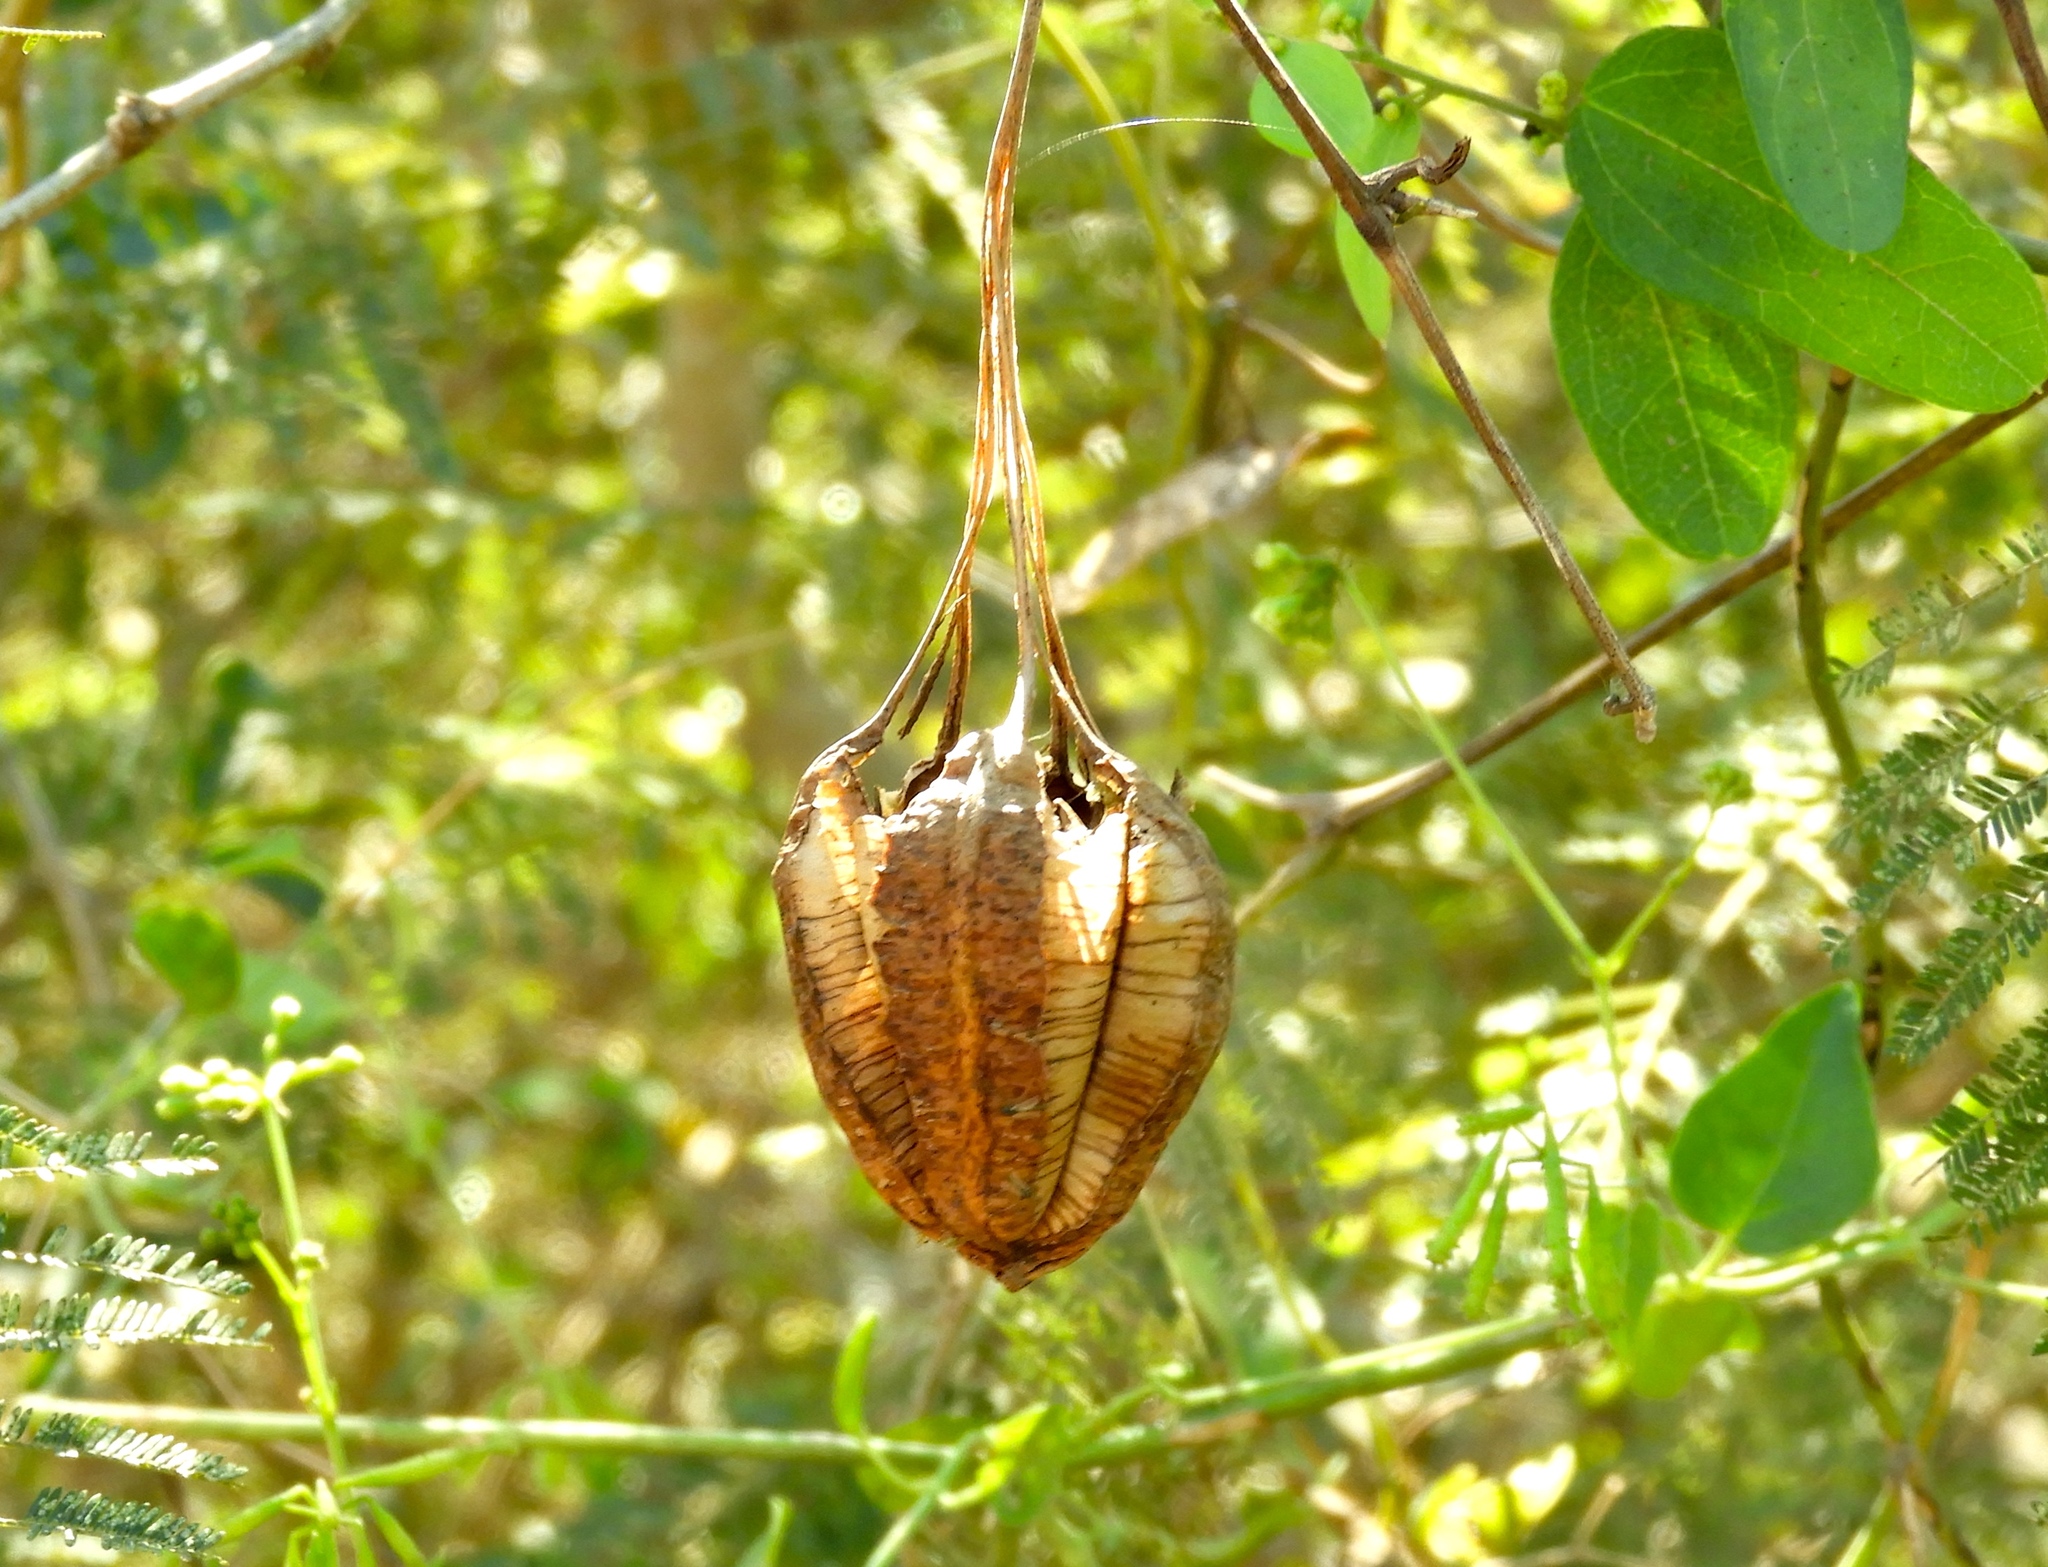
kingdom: Plantae
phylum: Tracheophyta
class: Magnoliopsida
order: Piperales
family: Aristolochiaceae
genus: Aristolochia
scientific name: Aristolochia taliscana
